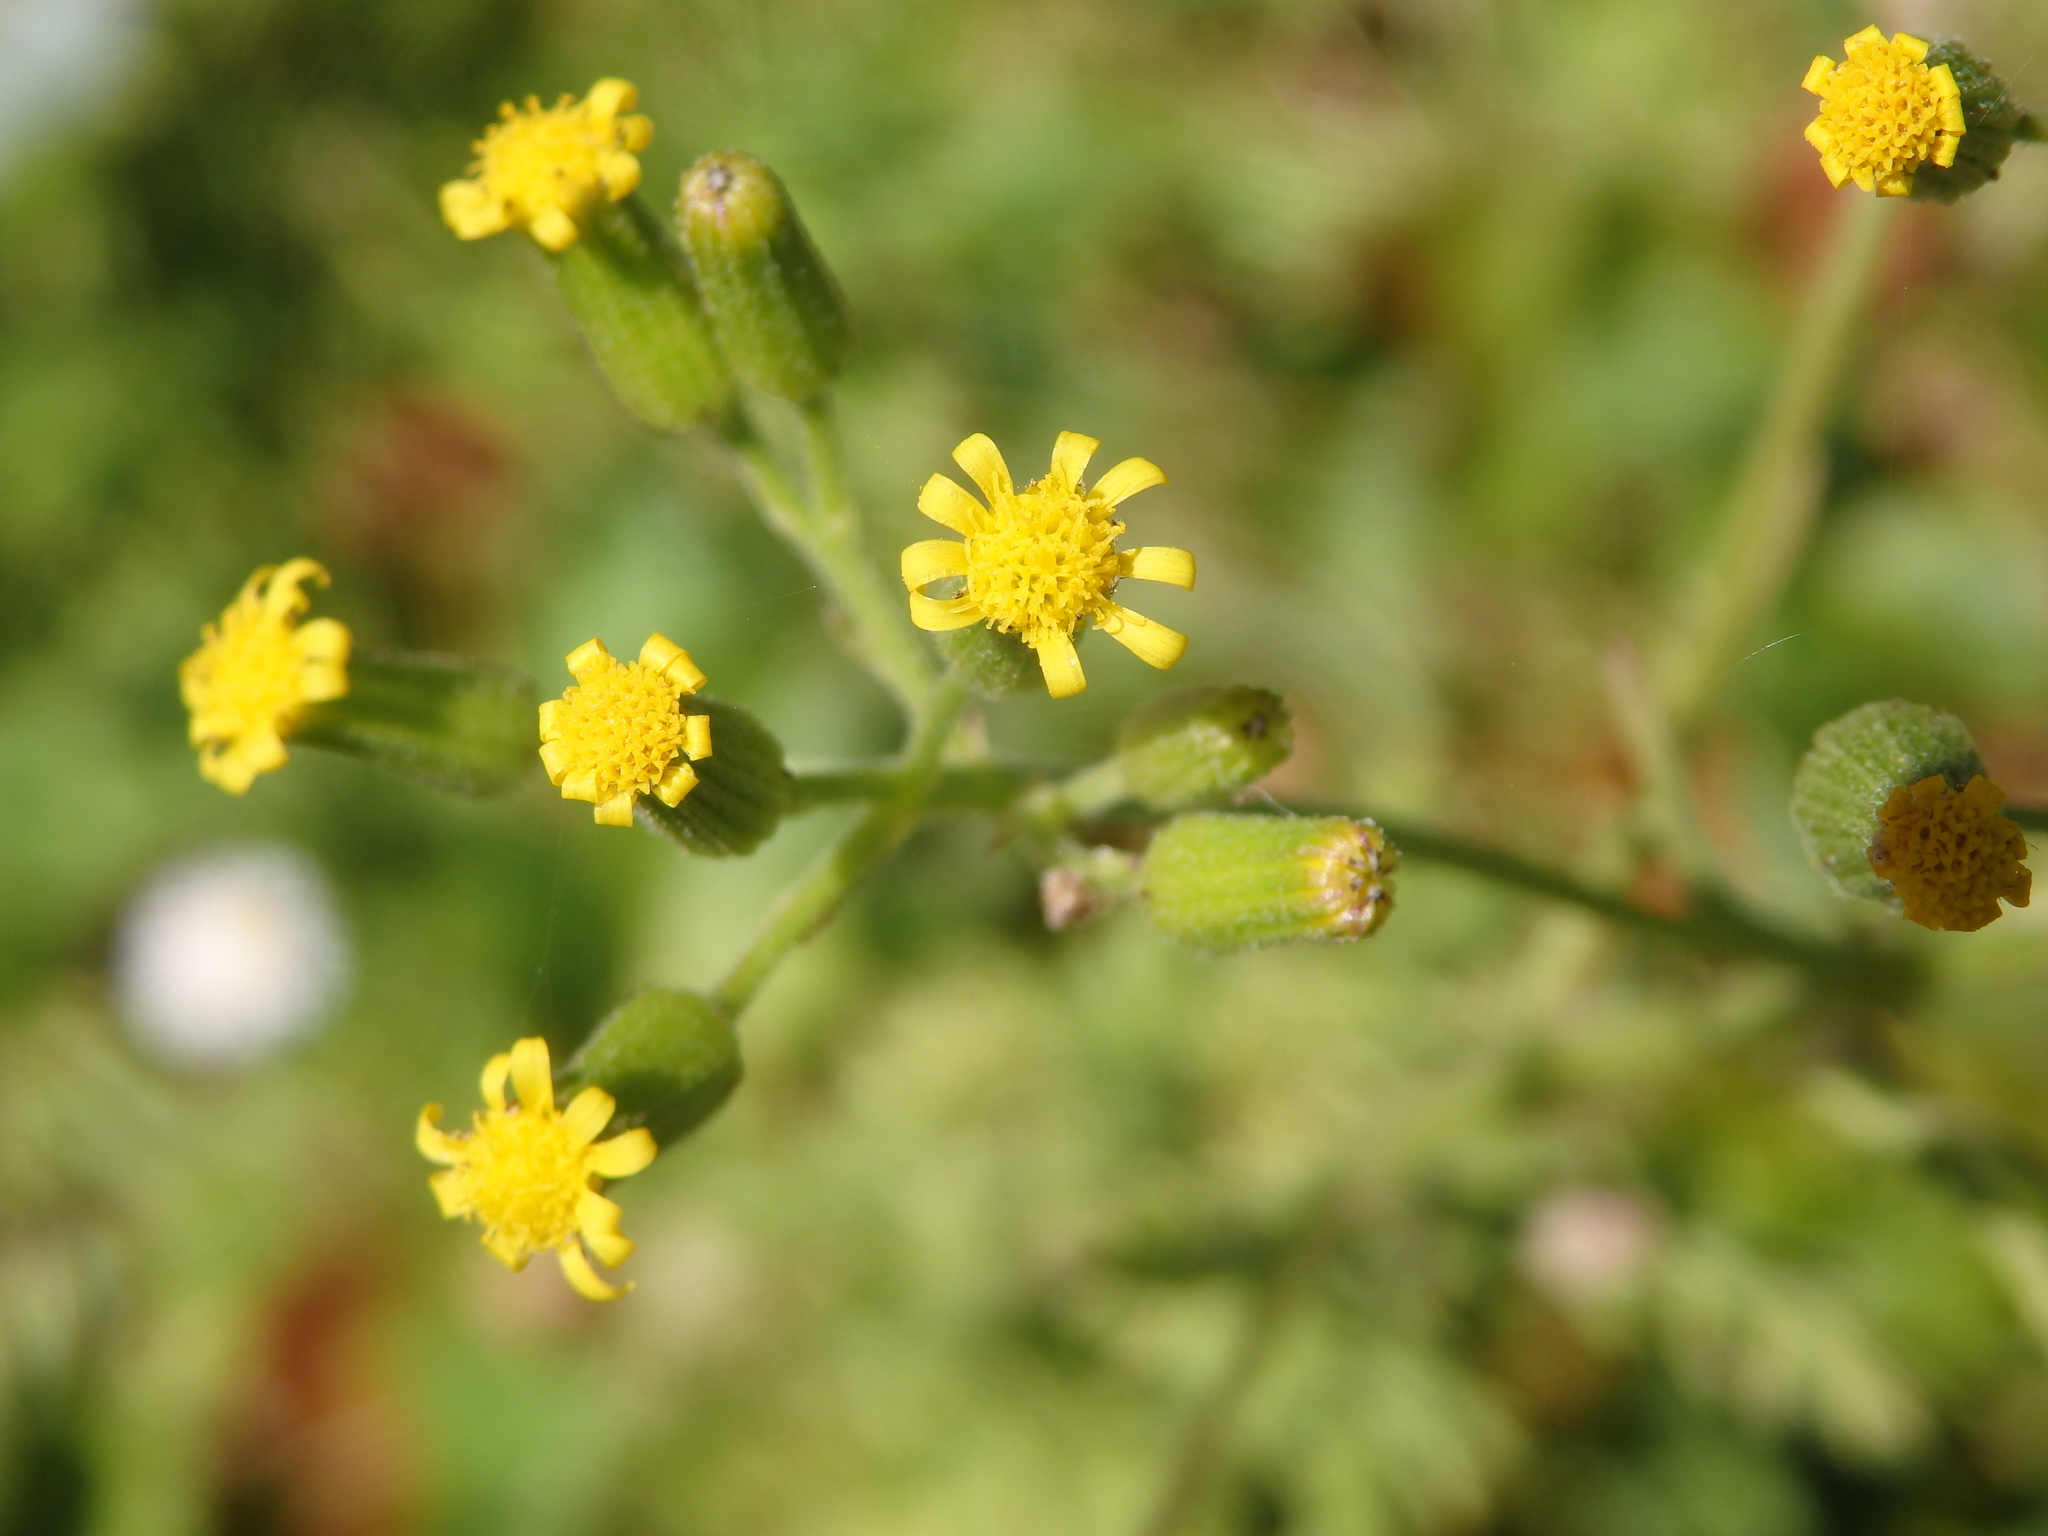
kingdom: Plantae
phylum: Tracheophyta
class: Magnoliopsida
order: Asterales
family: Asteraceae
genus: Senecio
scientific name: Senecio lividus
